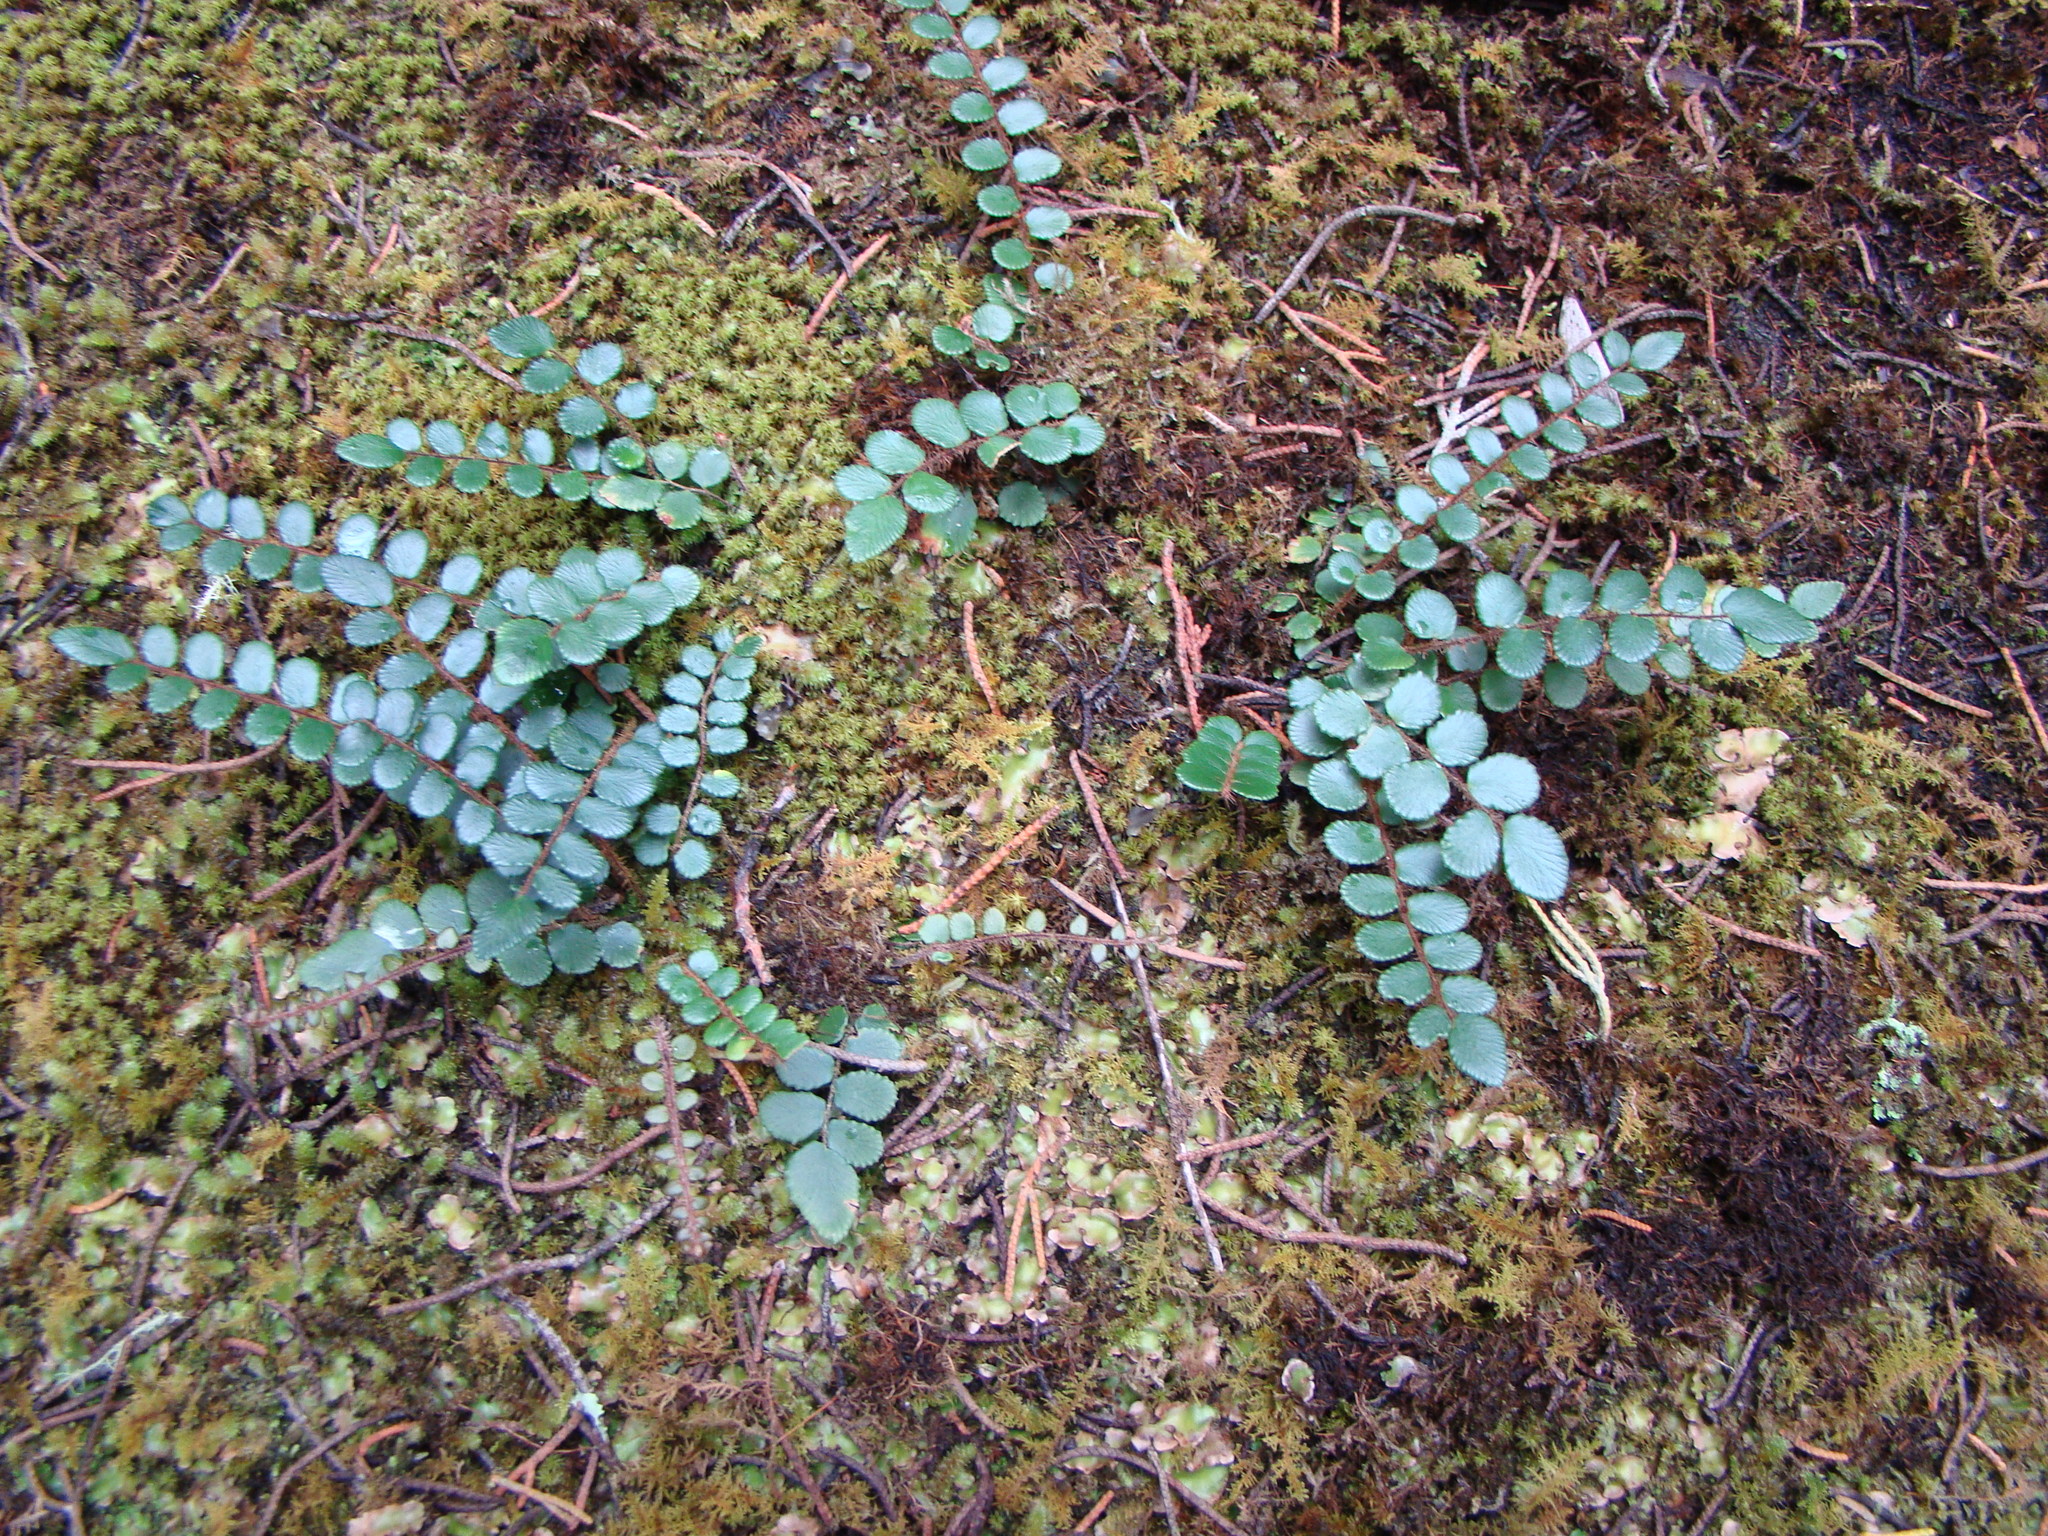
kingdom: Plantae
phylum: Tracheophyta
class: Polypodiopsida
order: Polypodiales
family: Pteridaceae
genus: Pellaea
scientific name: Pellaea rotundifolia
